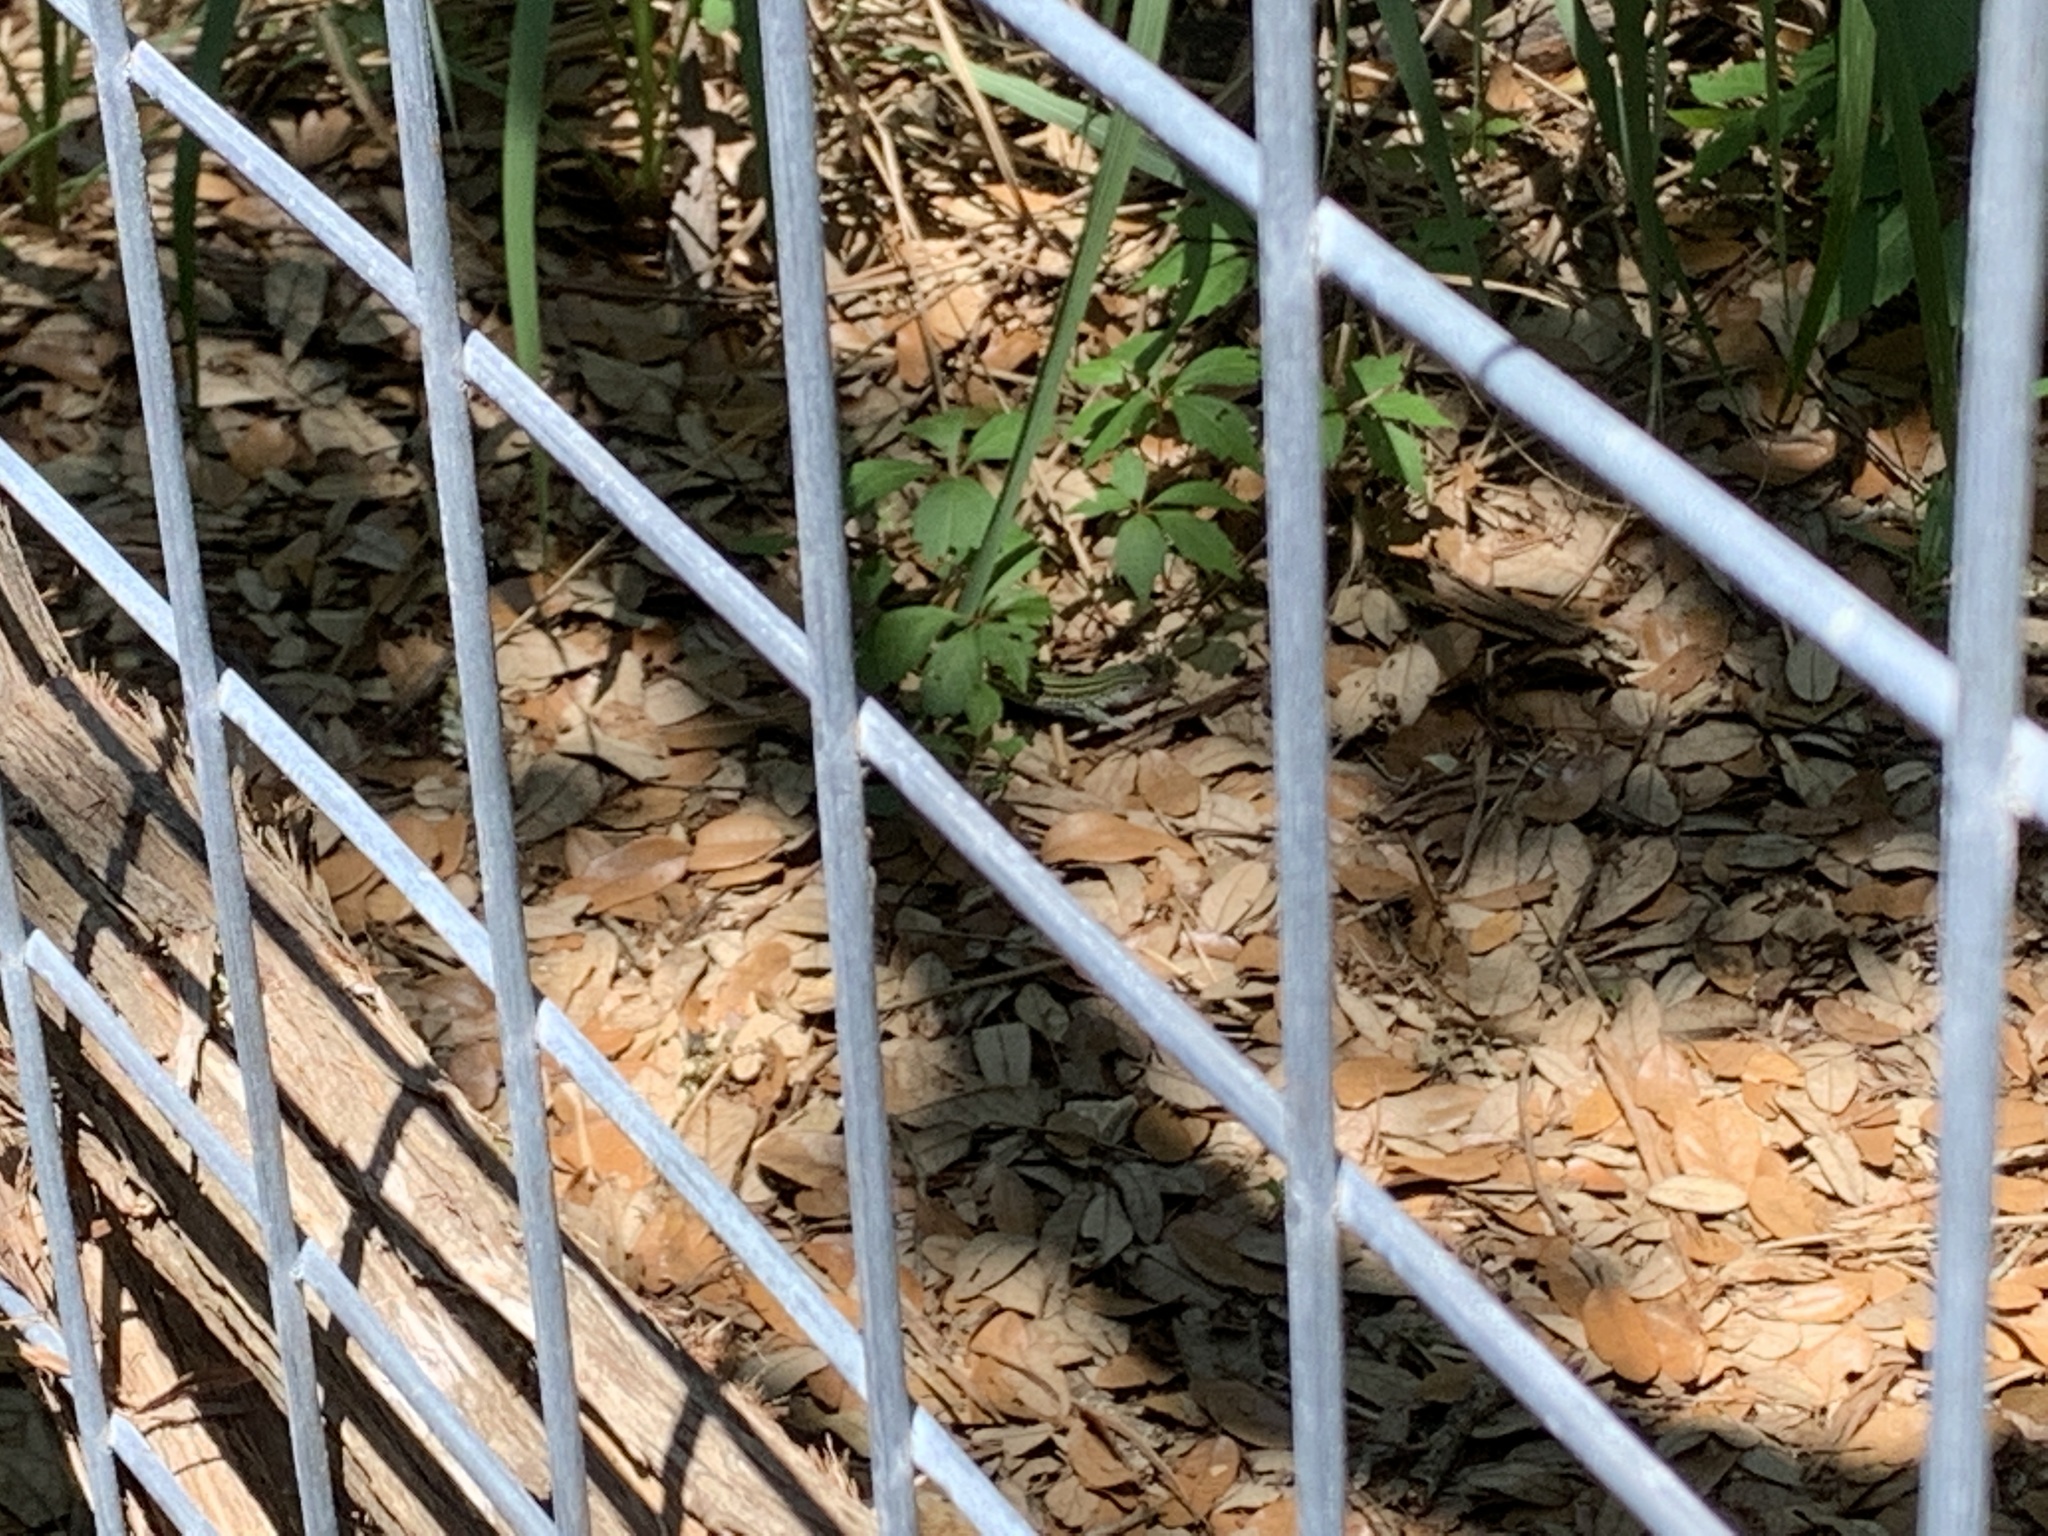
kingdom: Animalia
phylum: Chordata
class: Squamata
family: Teiidae
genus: Aspidoscelis
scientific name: Aspidoscelis gularis
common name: Eastern spotted whiptail
